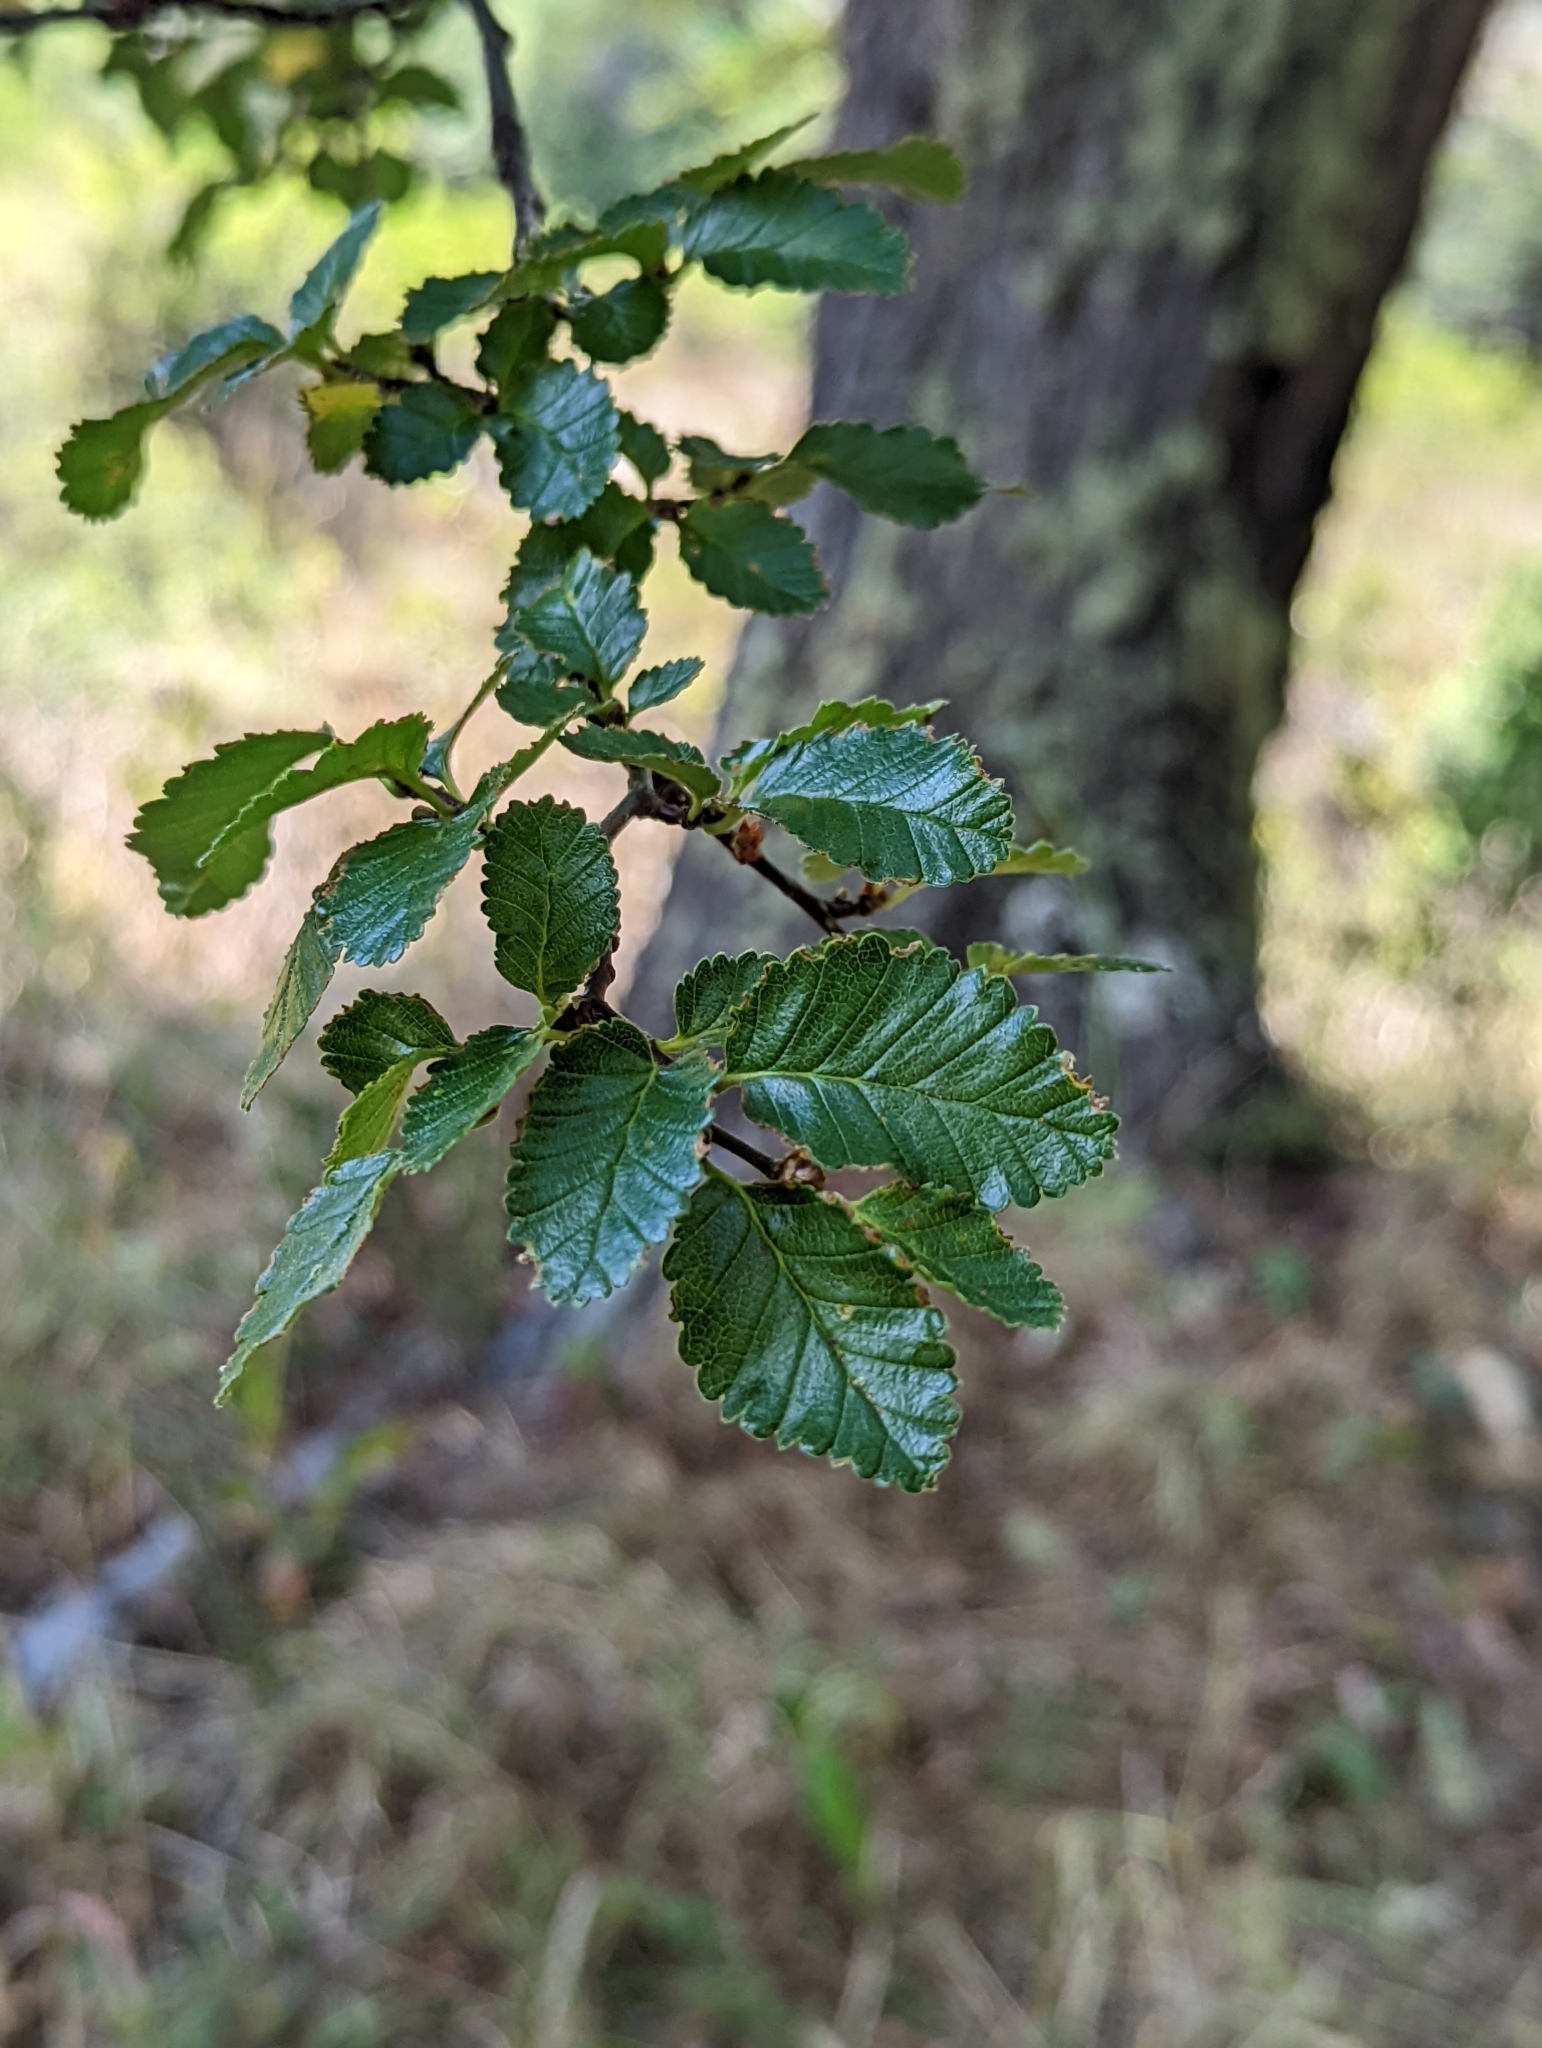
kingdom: Plantae
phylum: Tracheophyta
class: Magnoliopsida
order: Fagales
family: Nothofagaceae
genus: Nothofagus
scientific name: Nothofagus pumilio
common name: Lenga beech
